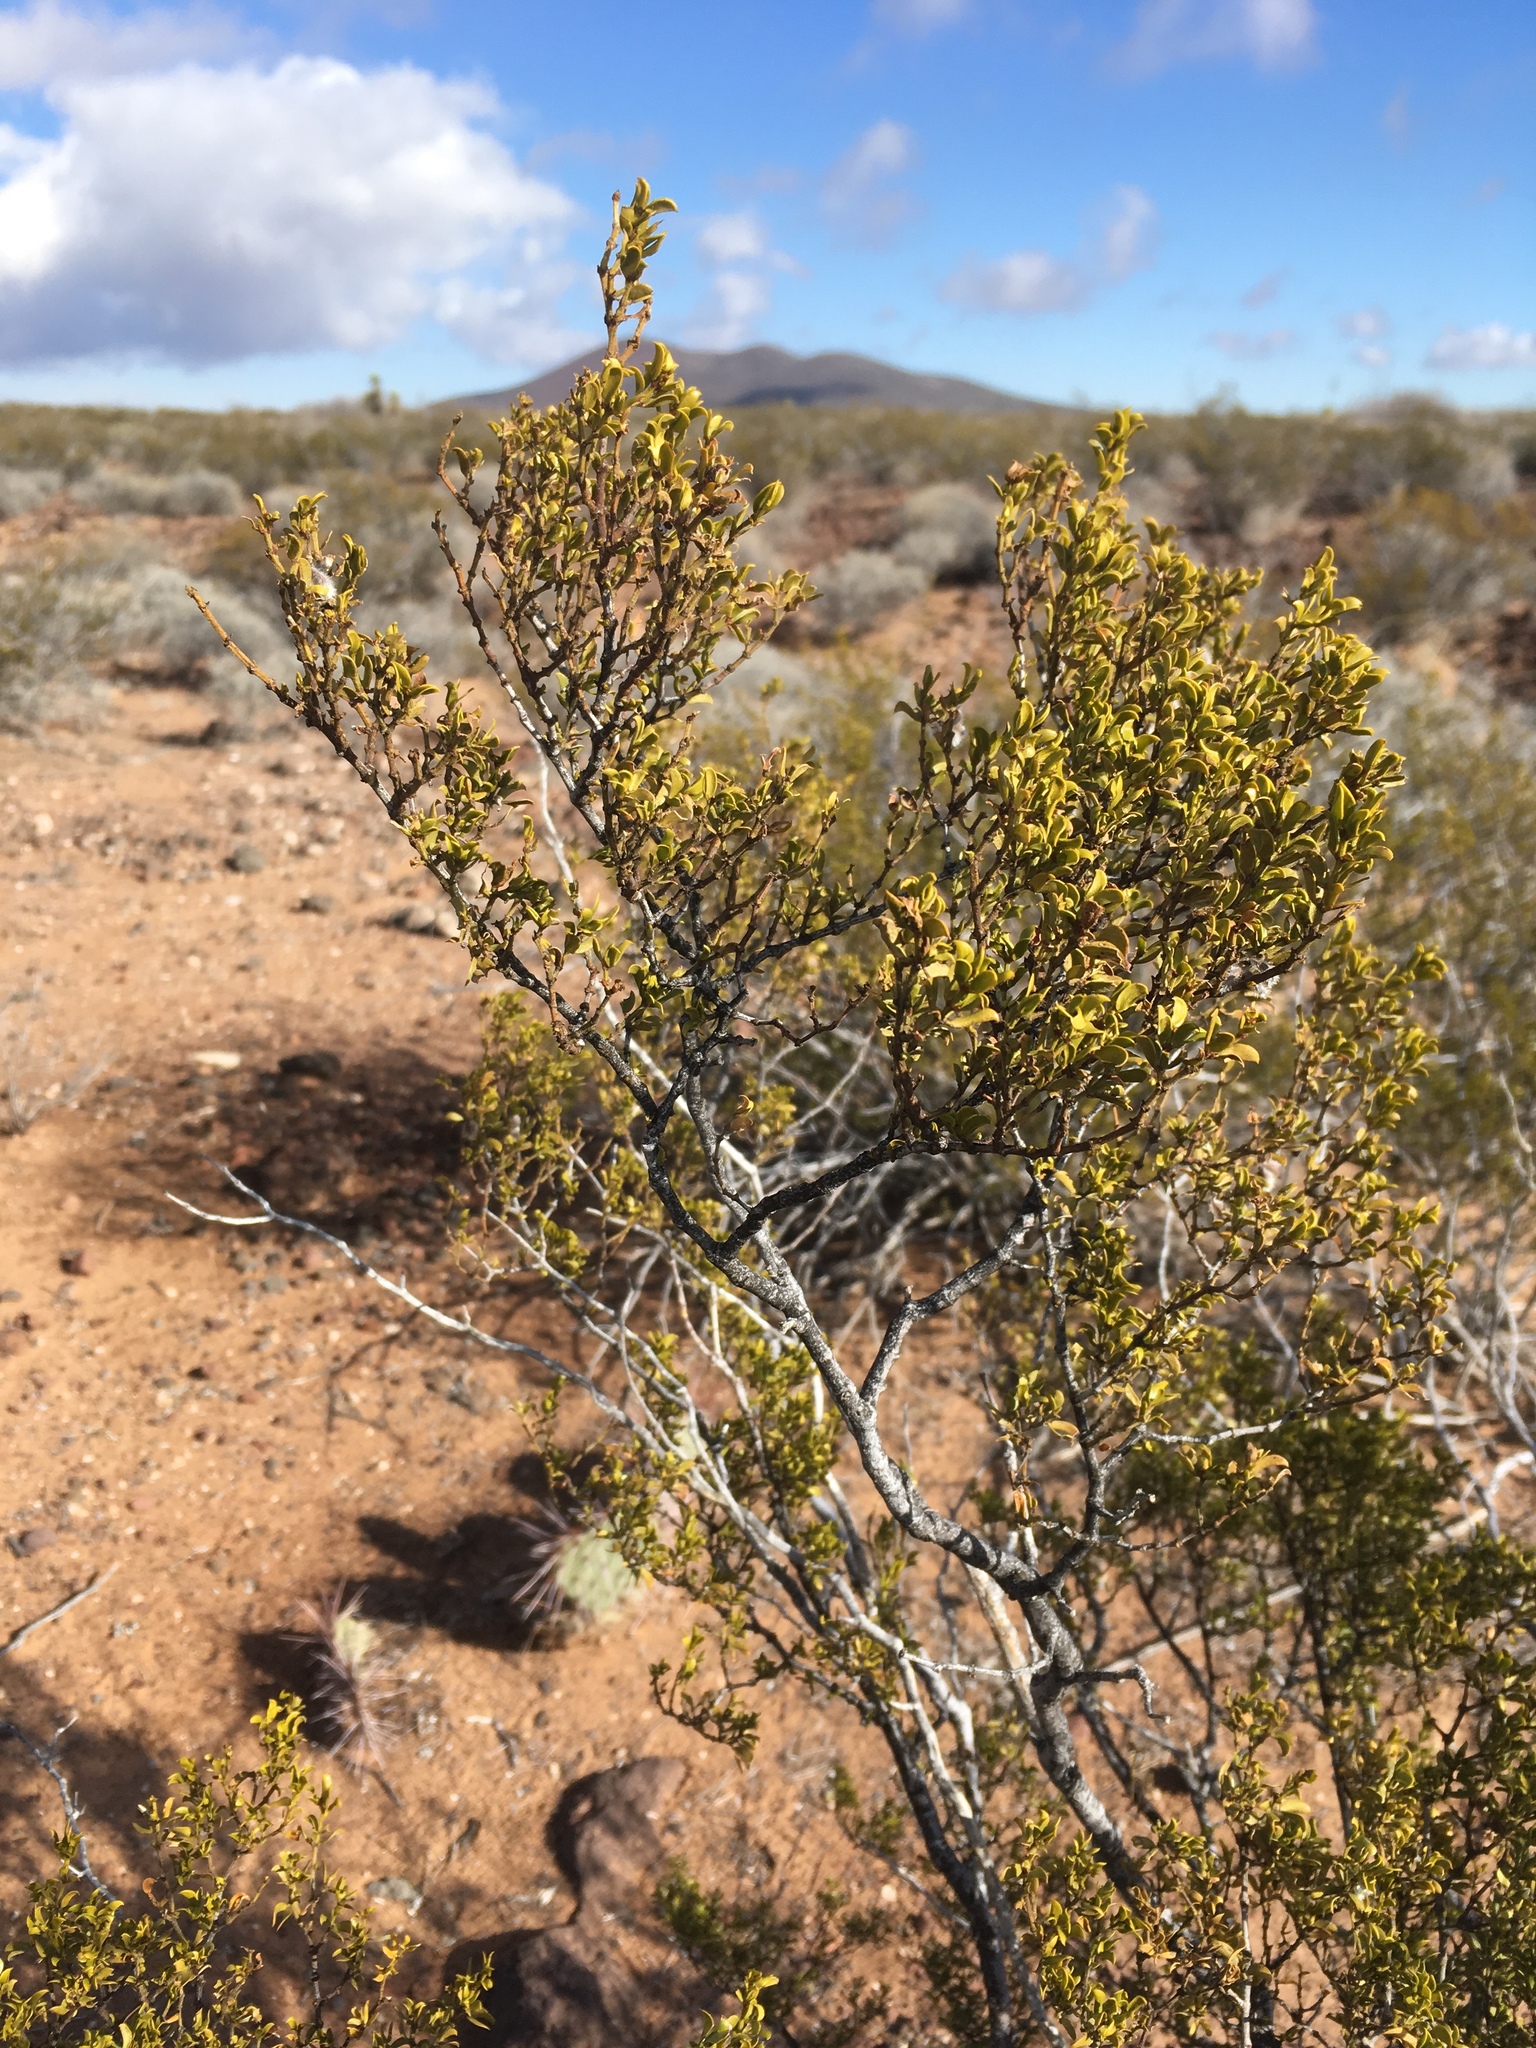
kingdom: Plantae
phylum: Tracheophyta
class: Magnoliopsida
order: Zygophyllales
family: Zygophyllaceae
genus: Larrea
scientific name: Larrea tridentata
